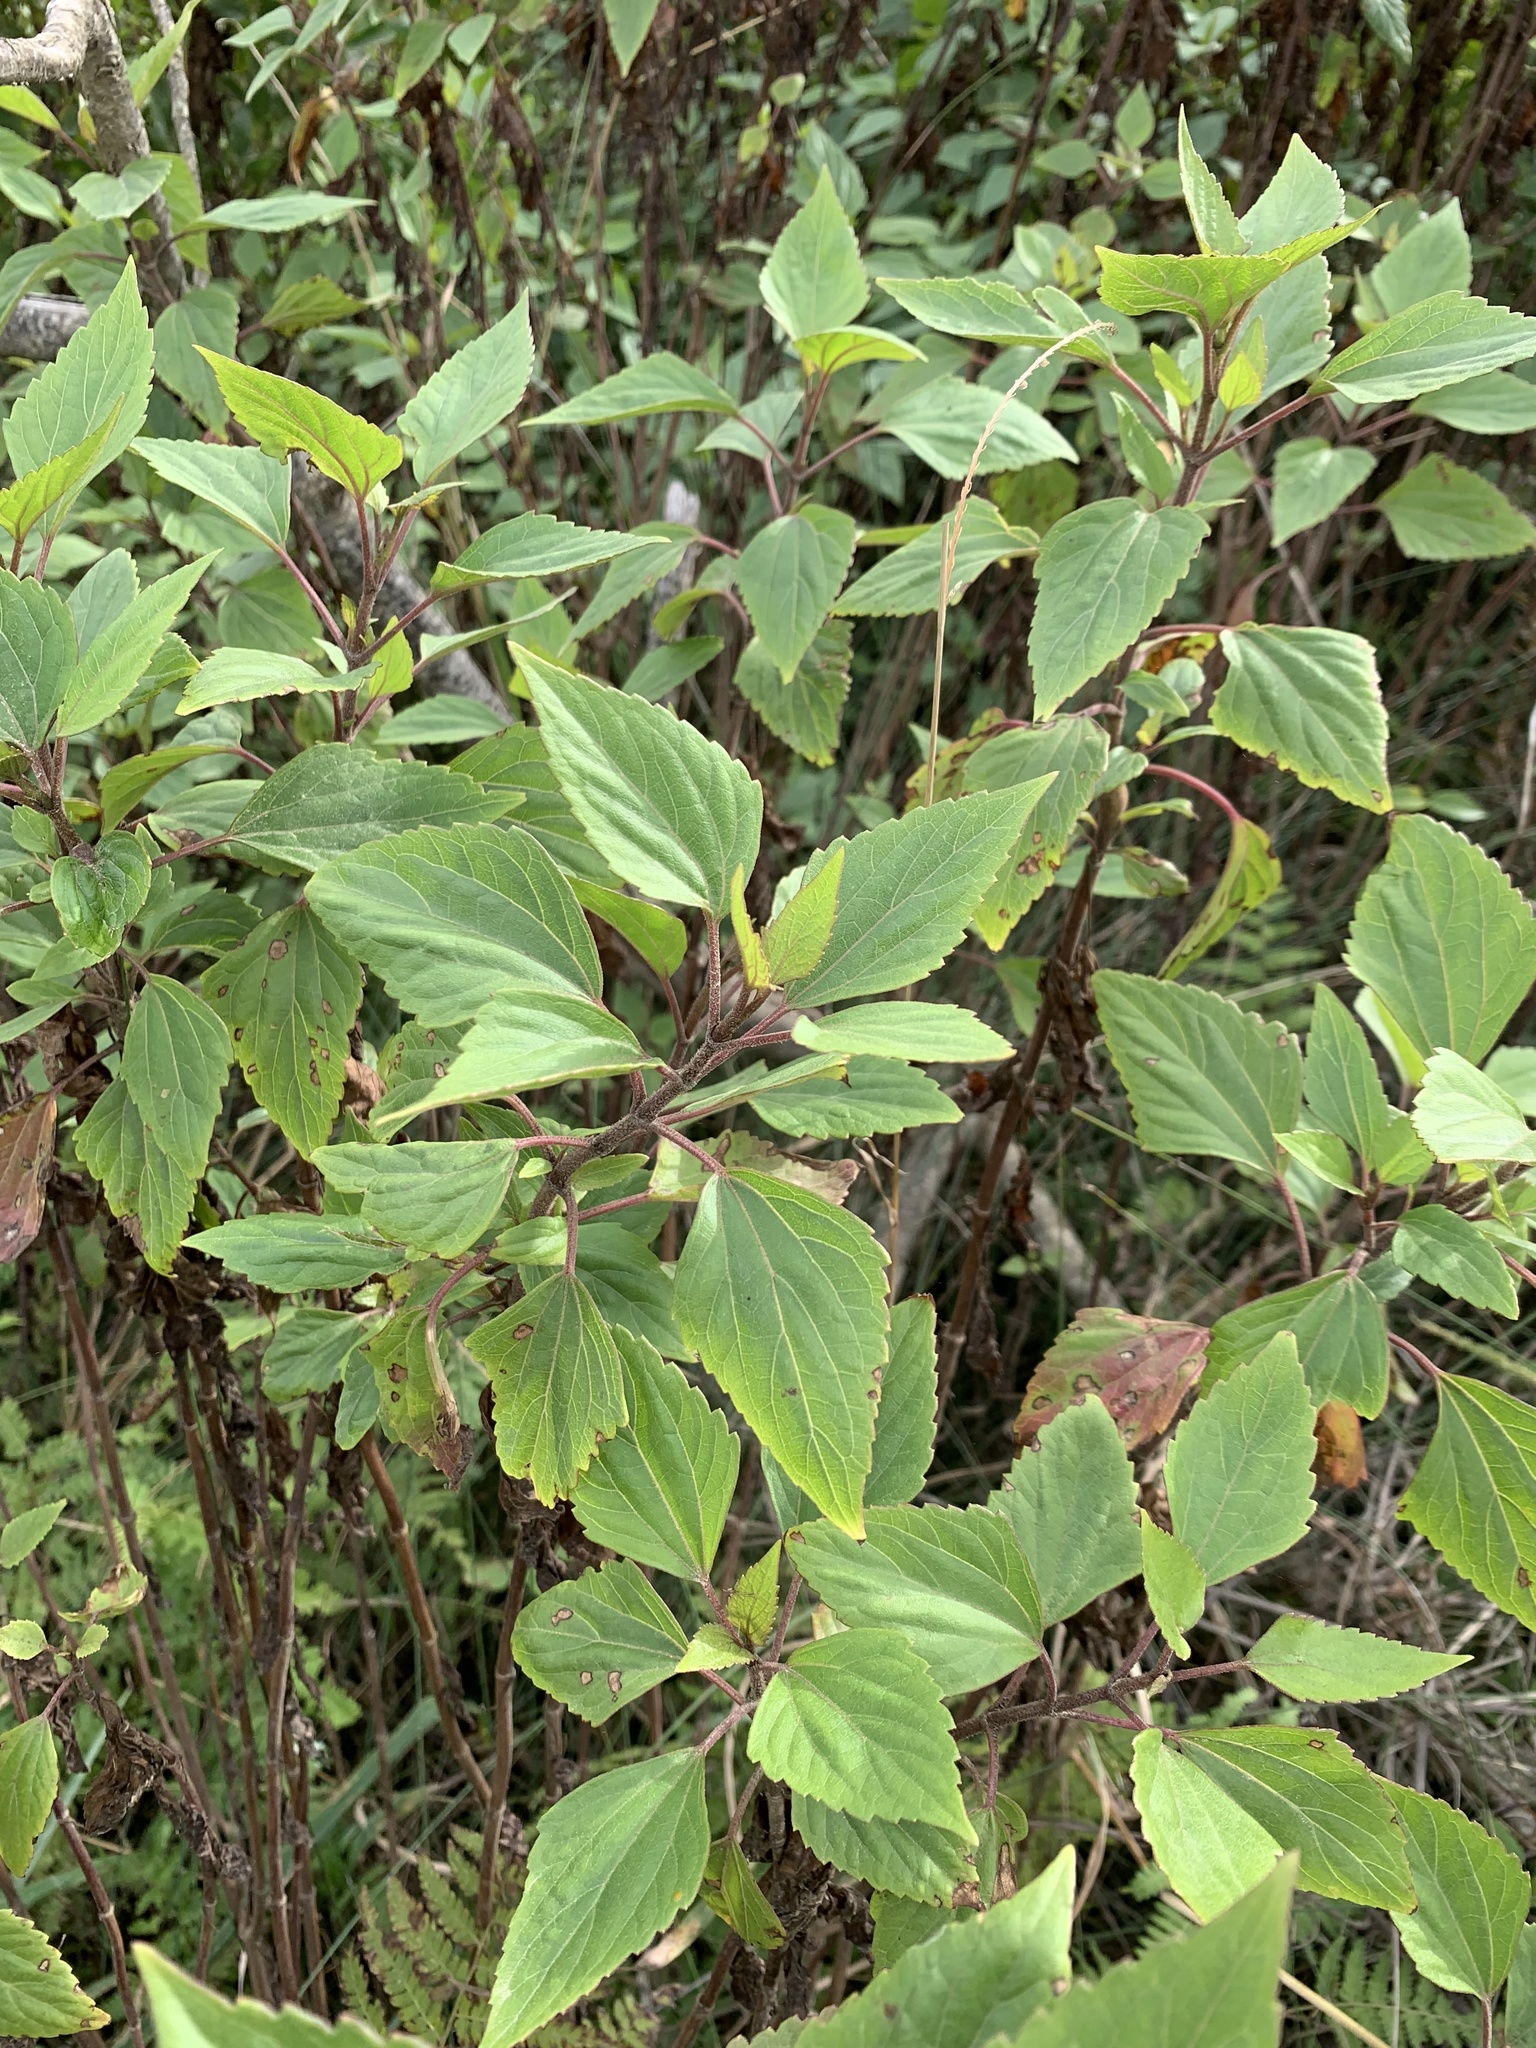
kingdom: Plantae
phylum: Tracheophyta
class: Magnoliopsida
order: Asterales
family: Asteraceae
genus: Ageratina
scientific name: Ageratina adenophora
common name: Sticky snakeroot
